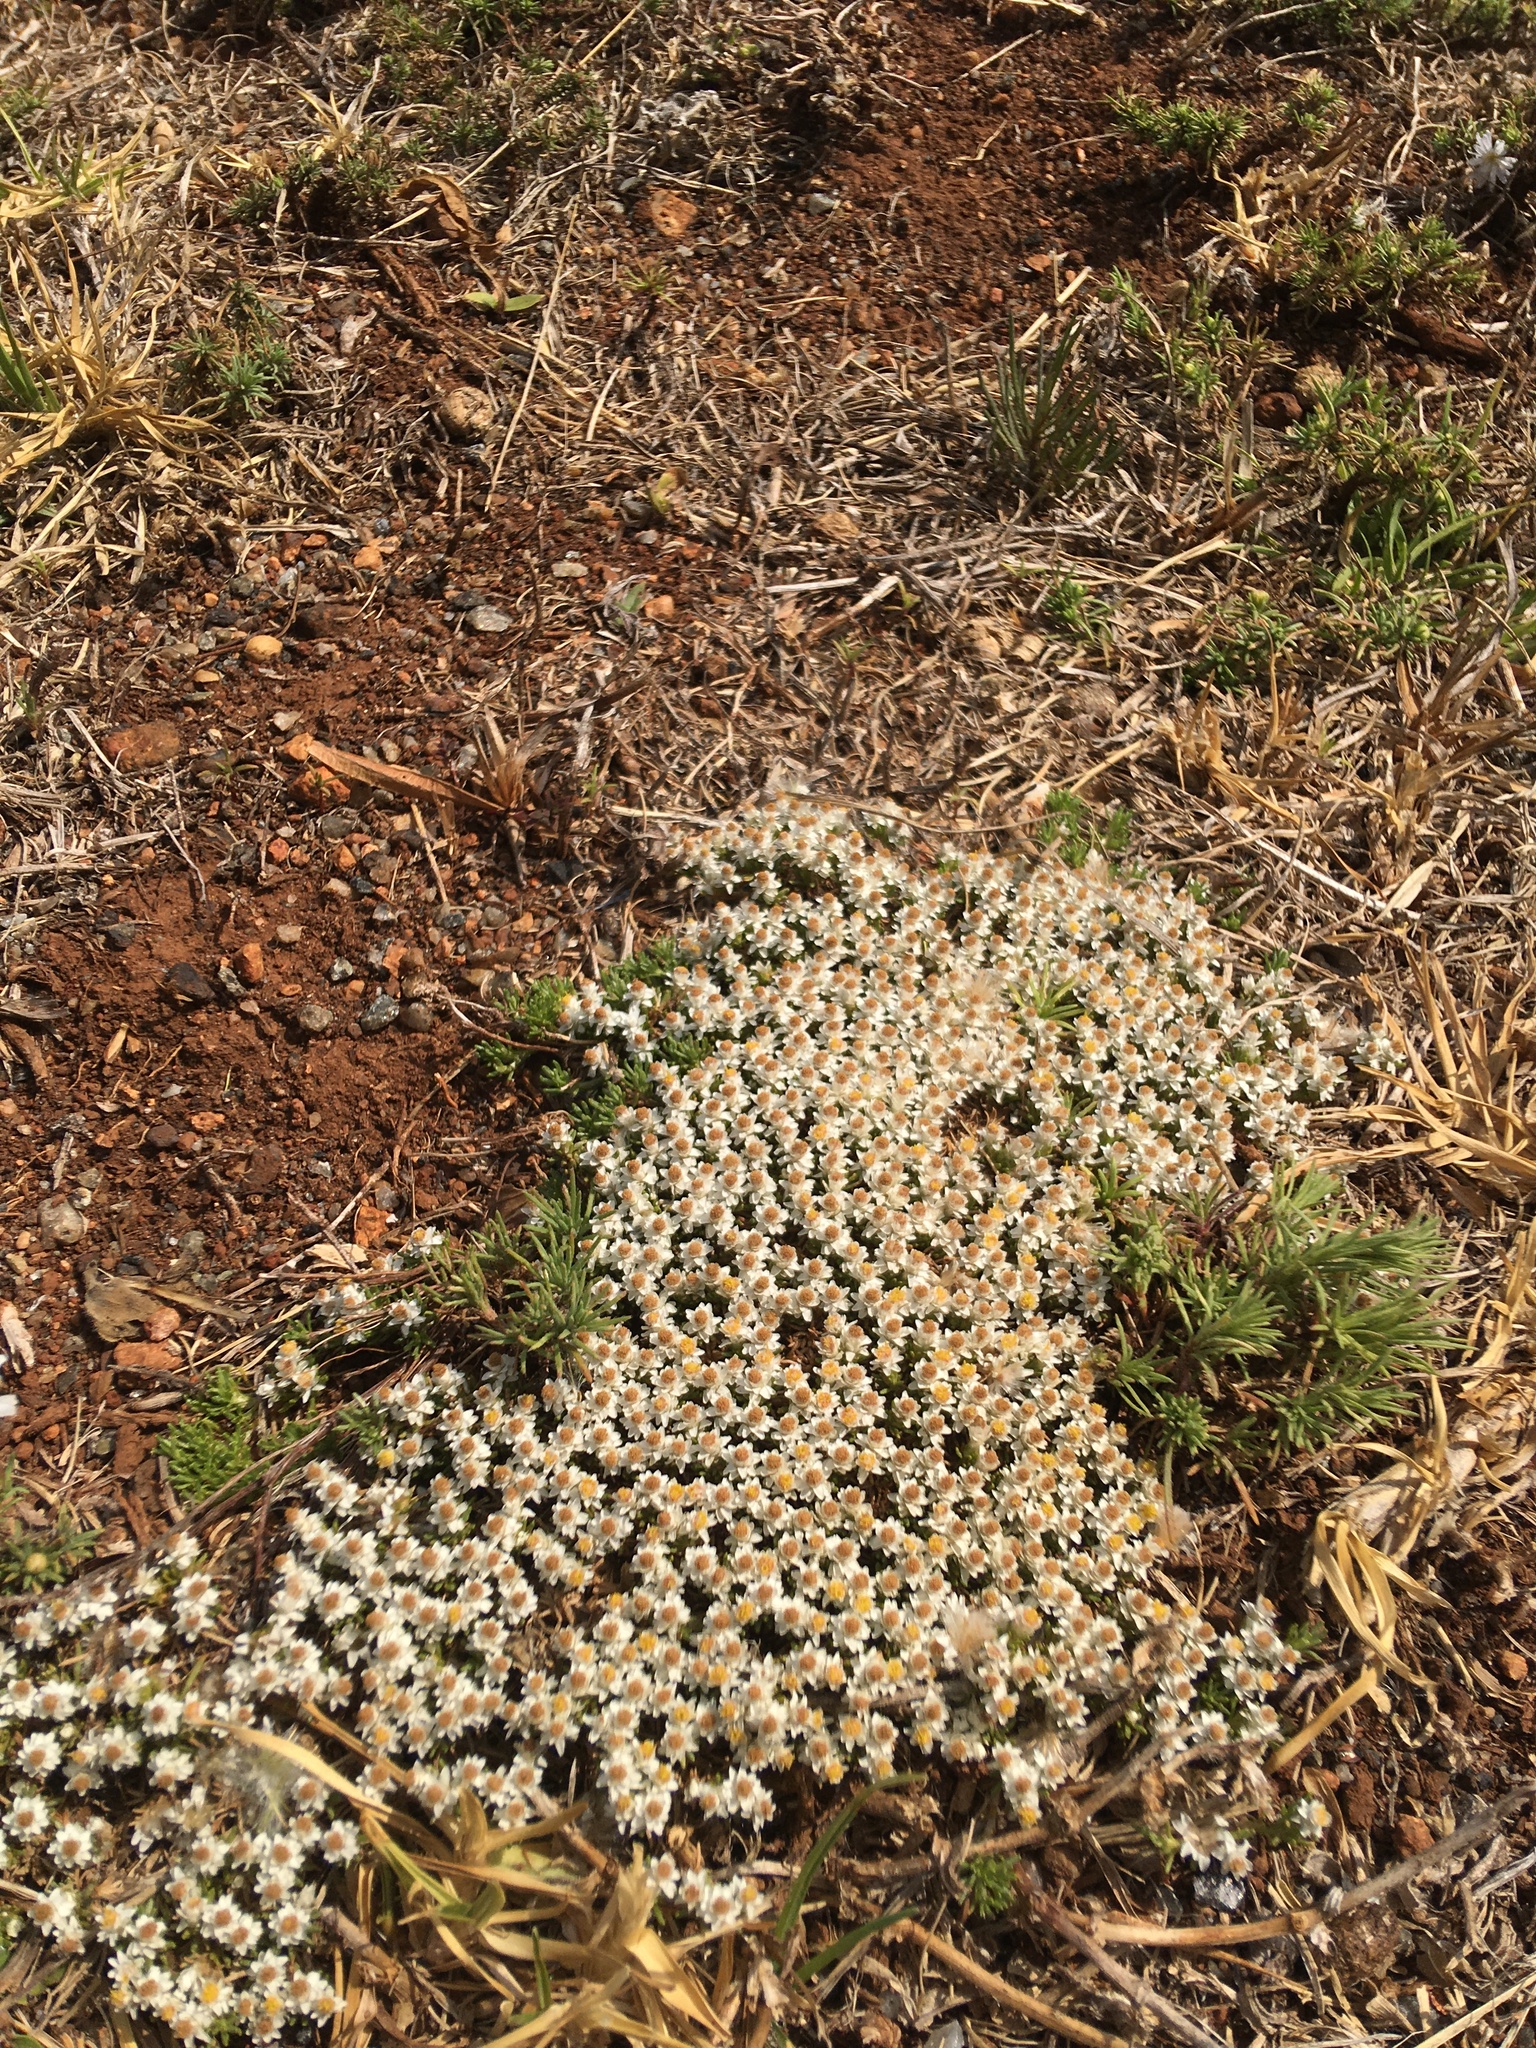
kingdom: Plantae
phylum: Tracheophyta
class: Magnoliopsida
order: Asterales
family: Asteraceae
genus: Helichrysum
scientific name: Helichrysum caespititium
